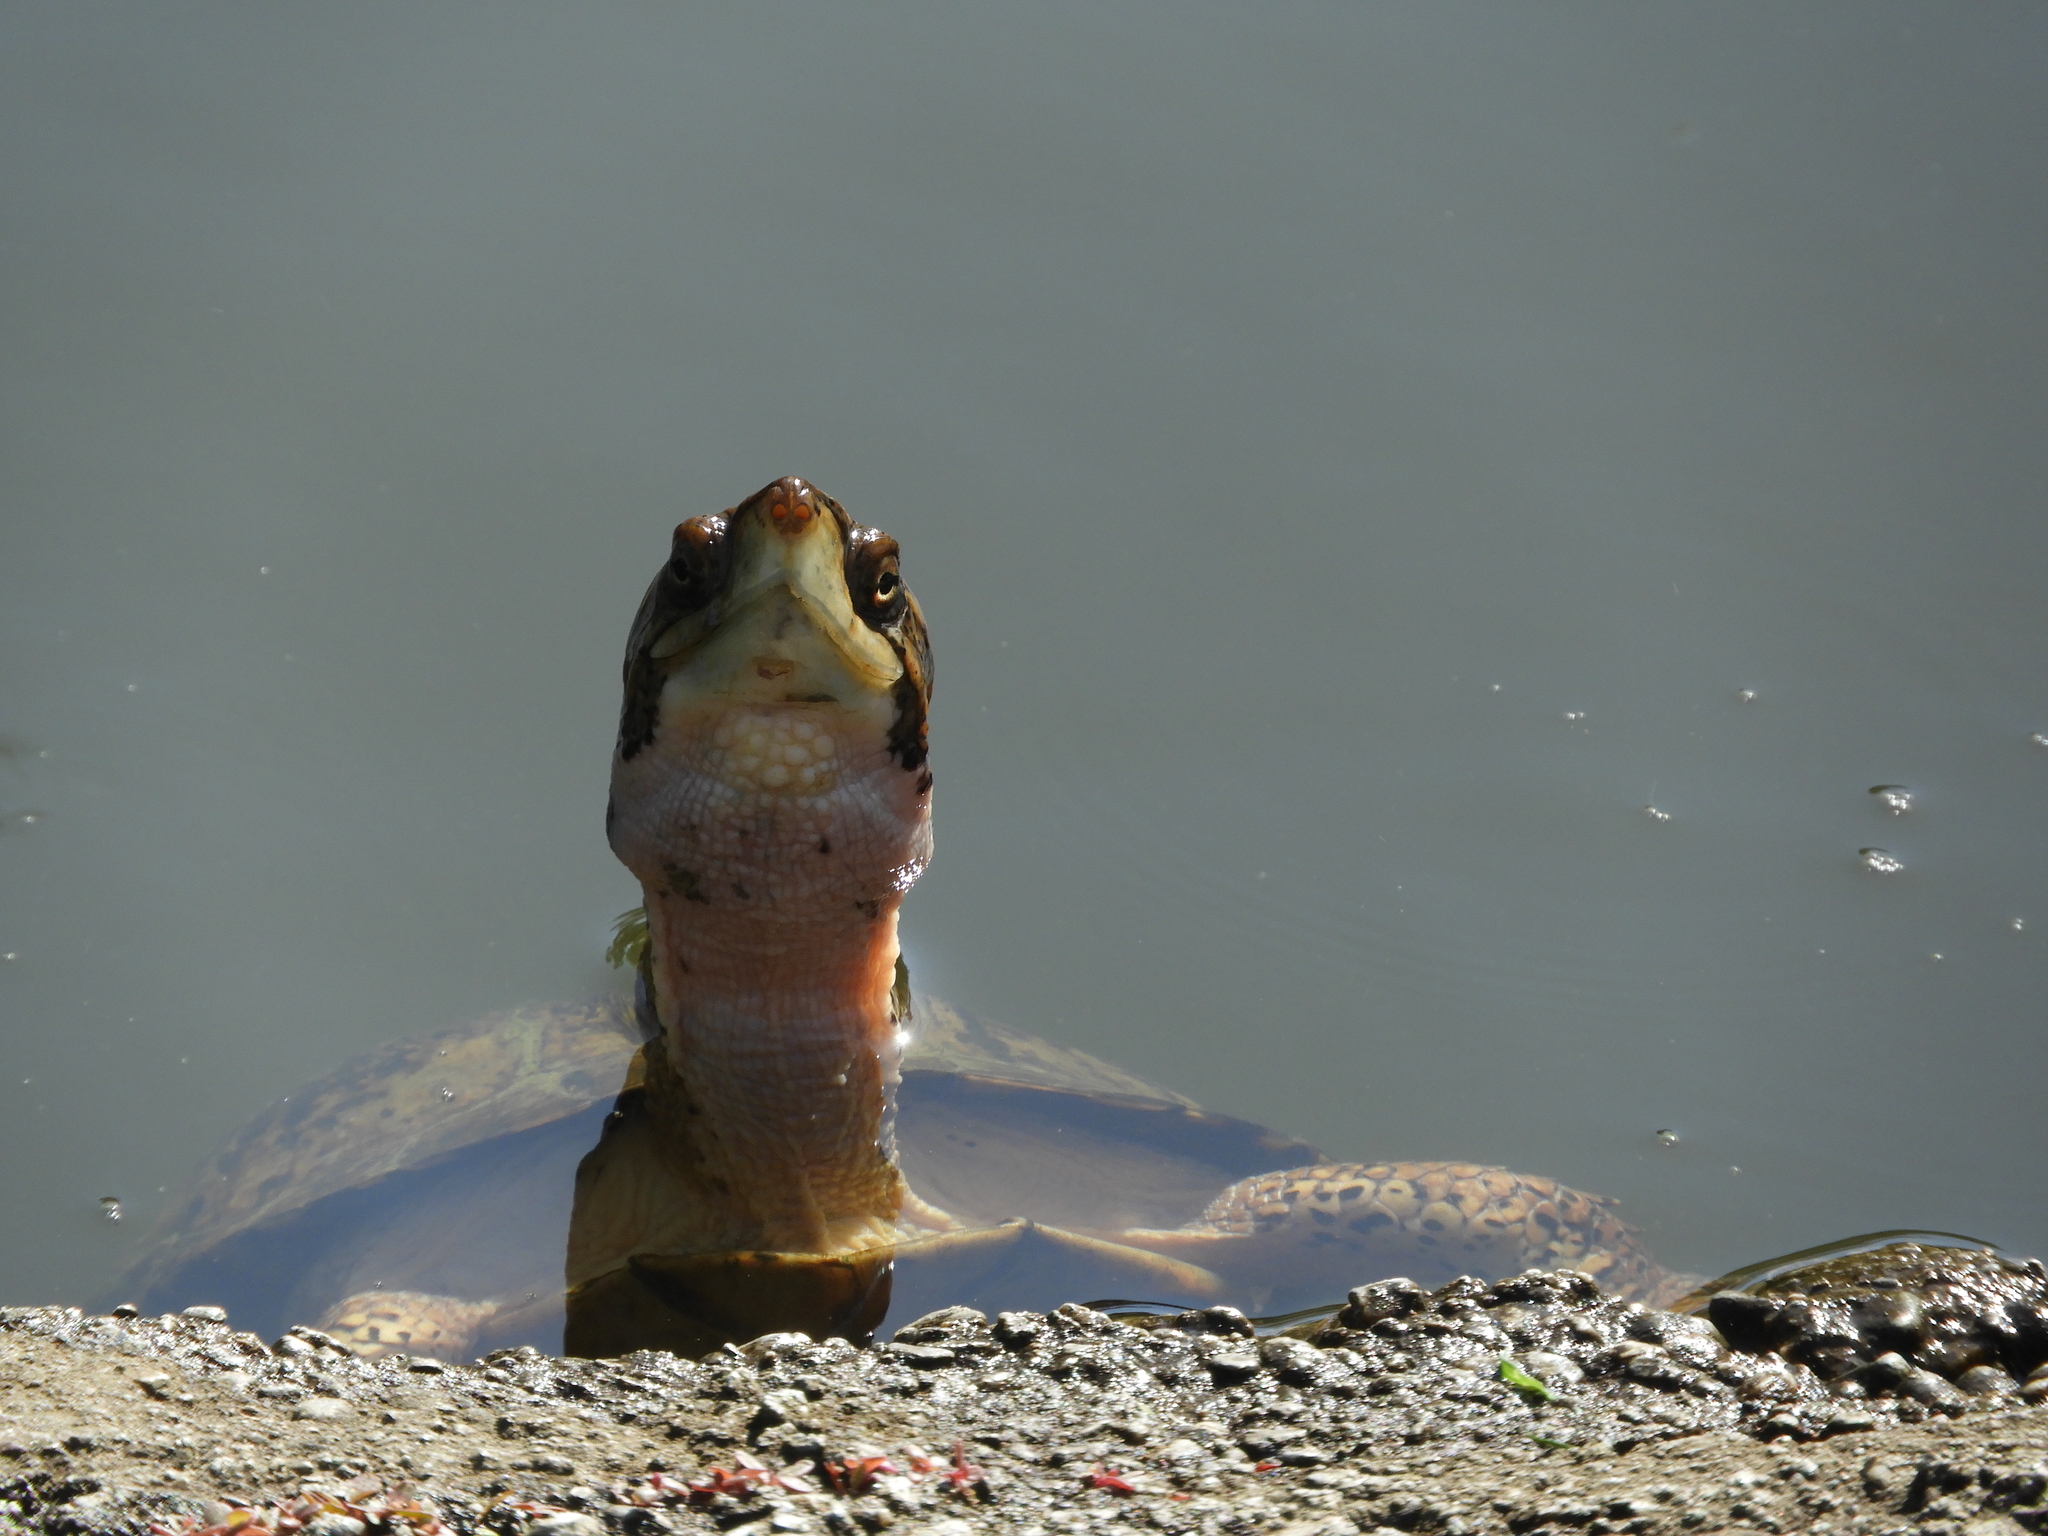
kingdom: Animalia
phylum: Chordata
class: Testudines
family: Emydidae
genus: Actinemys
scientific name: Actinemys marmorata
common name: Western pond turtle
